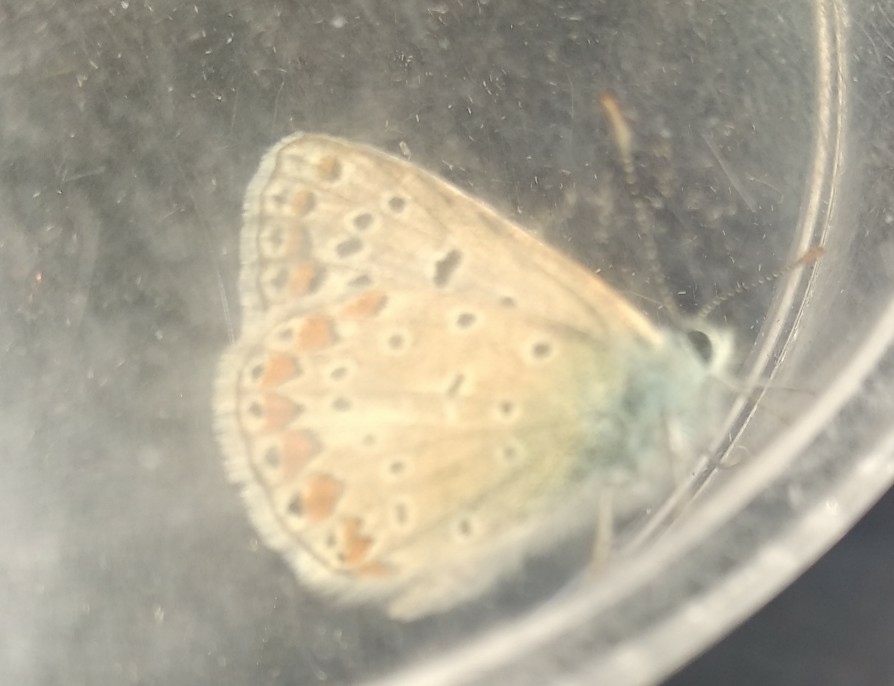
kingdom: Animalia
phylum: Arthropoda
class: Insecta
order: Lepidoptera
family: Lycaenidae
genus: Polyommatus
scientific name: Polyommatus icarus
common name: Common blue
